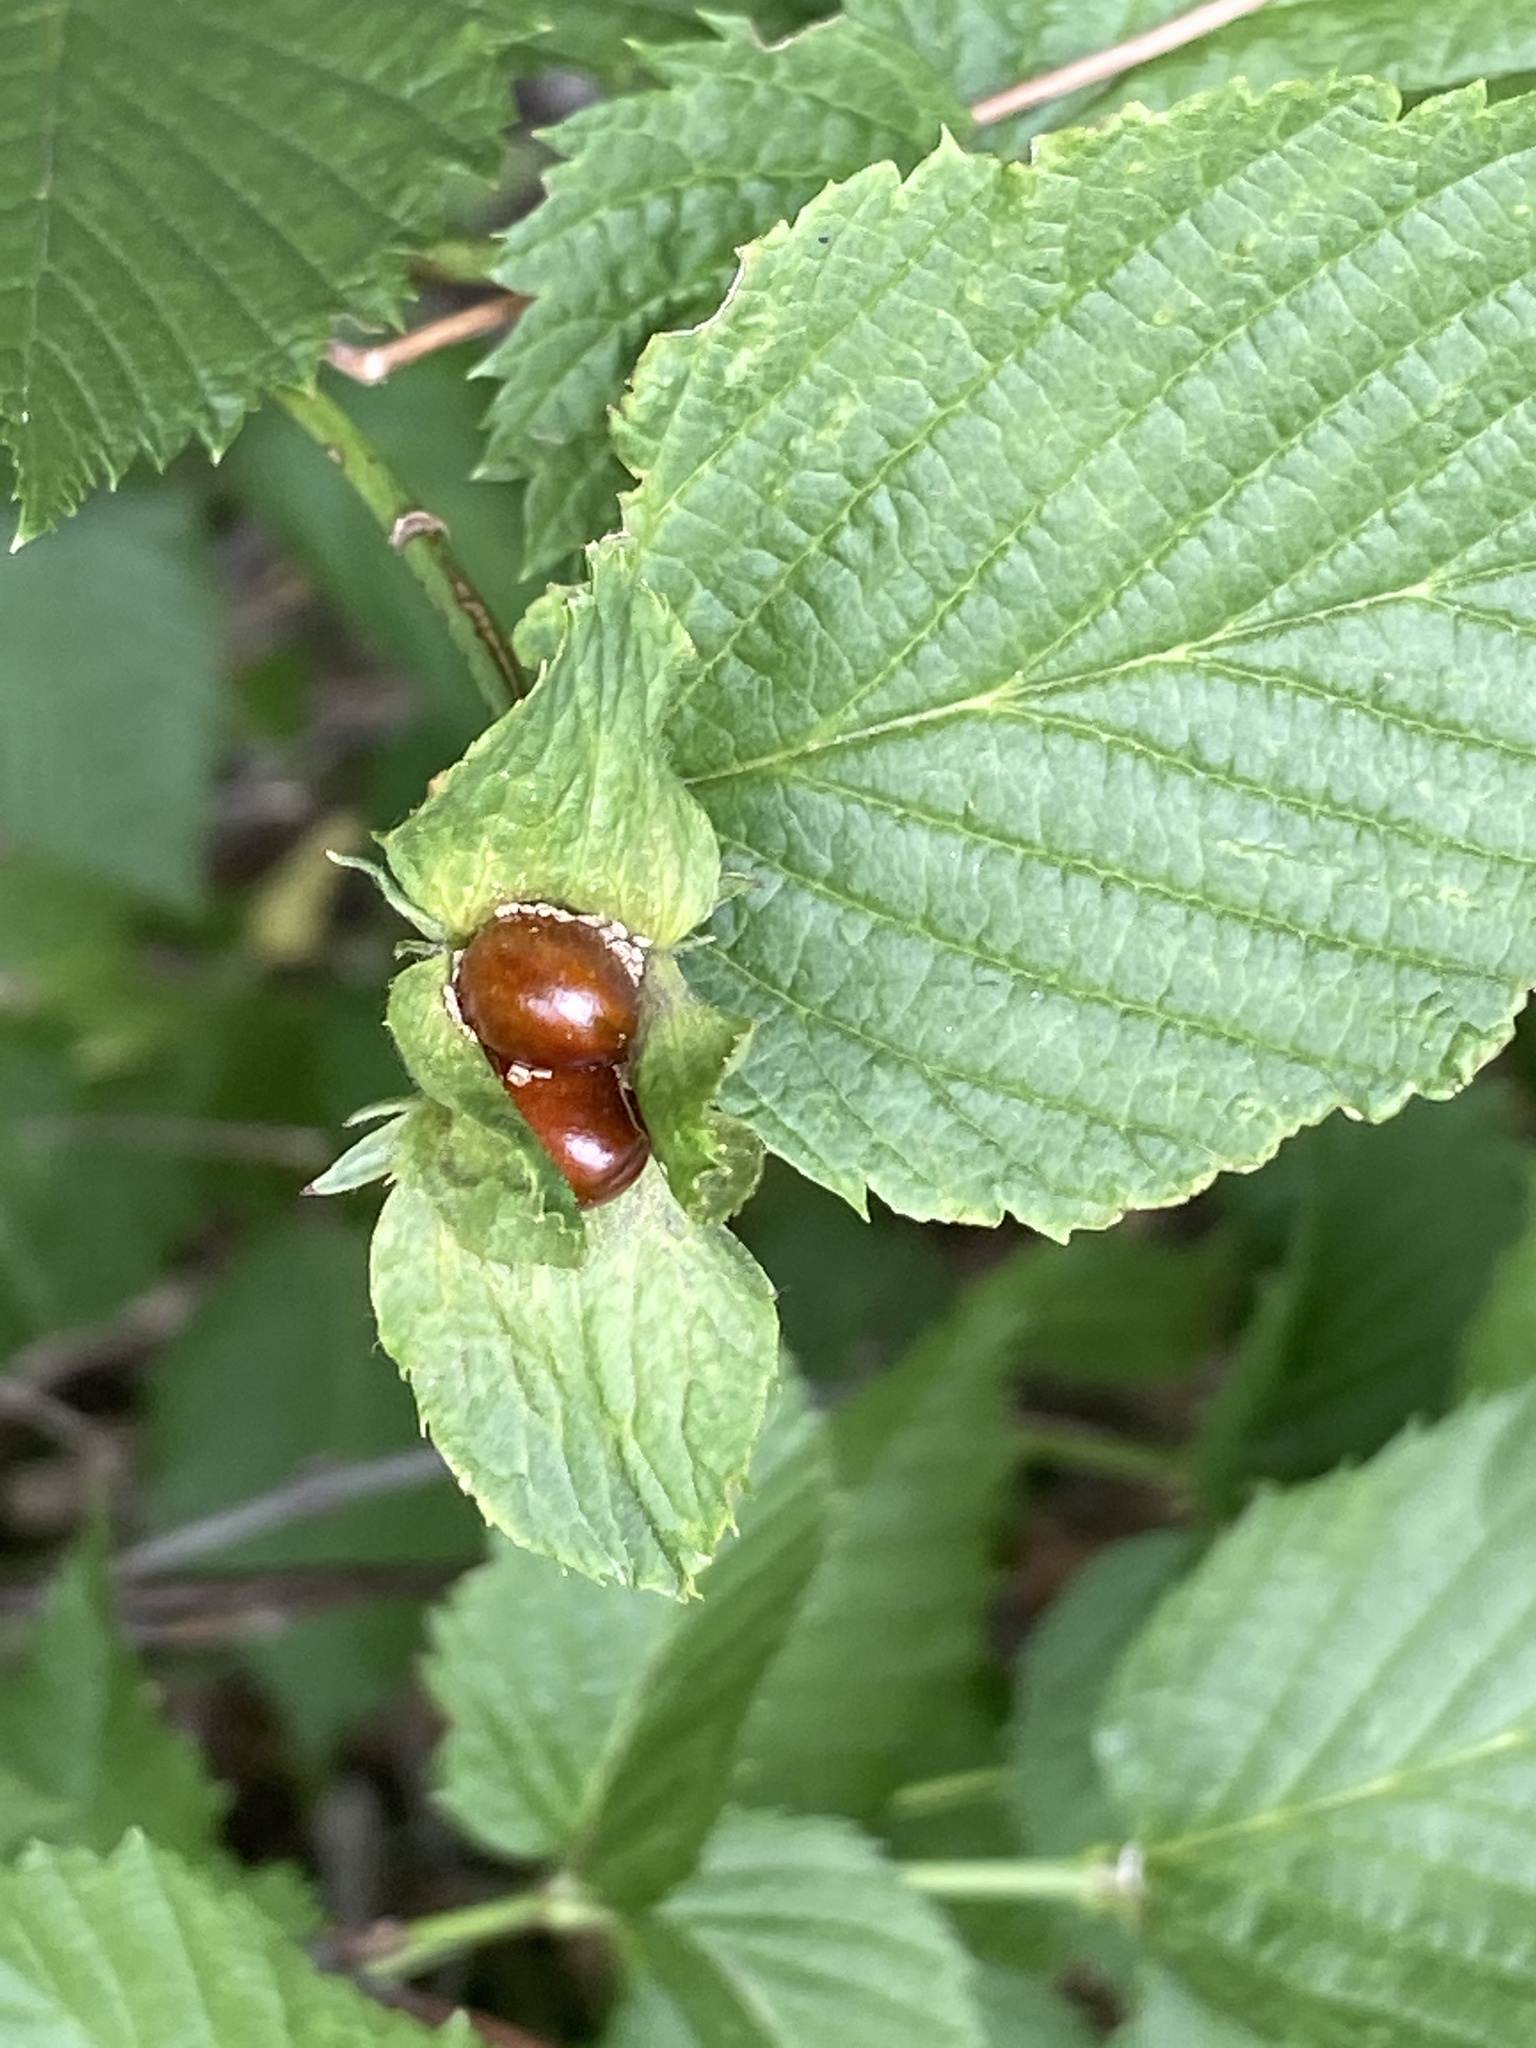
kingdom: Plantae
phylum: Tracheophyta
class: Magnoliopsida
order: Rosales
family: Rosaceae
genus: Rhodotypos
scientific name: Rhodotypos scandens
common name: Jetbead
